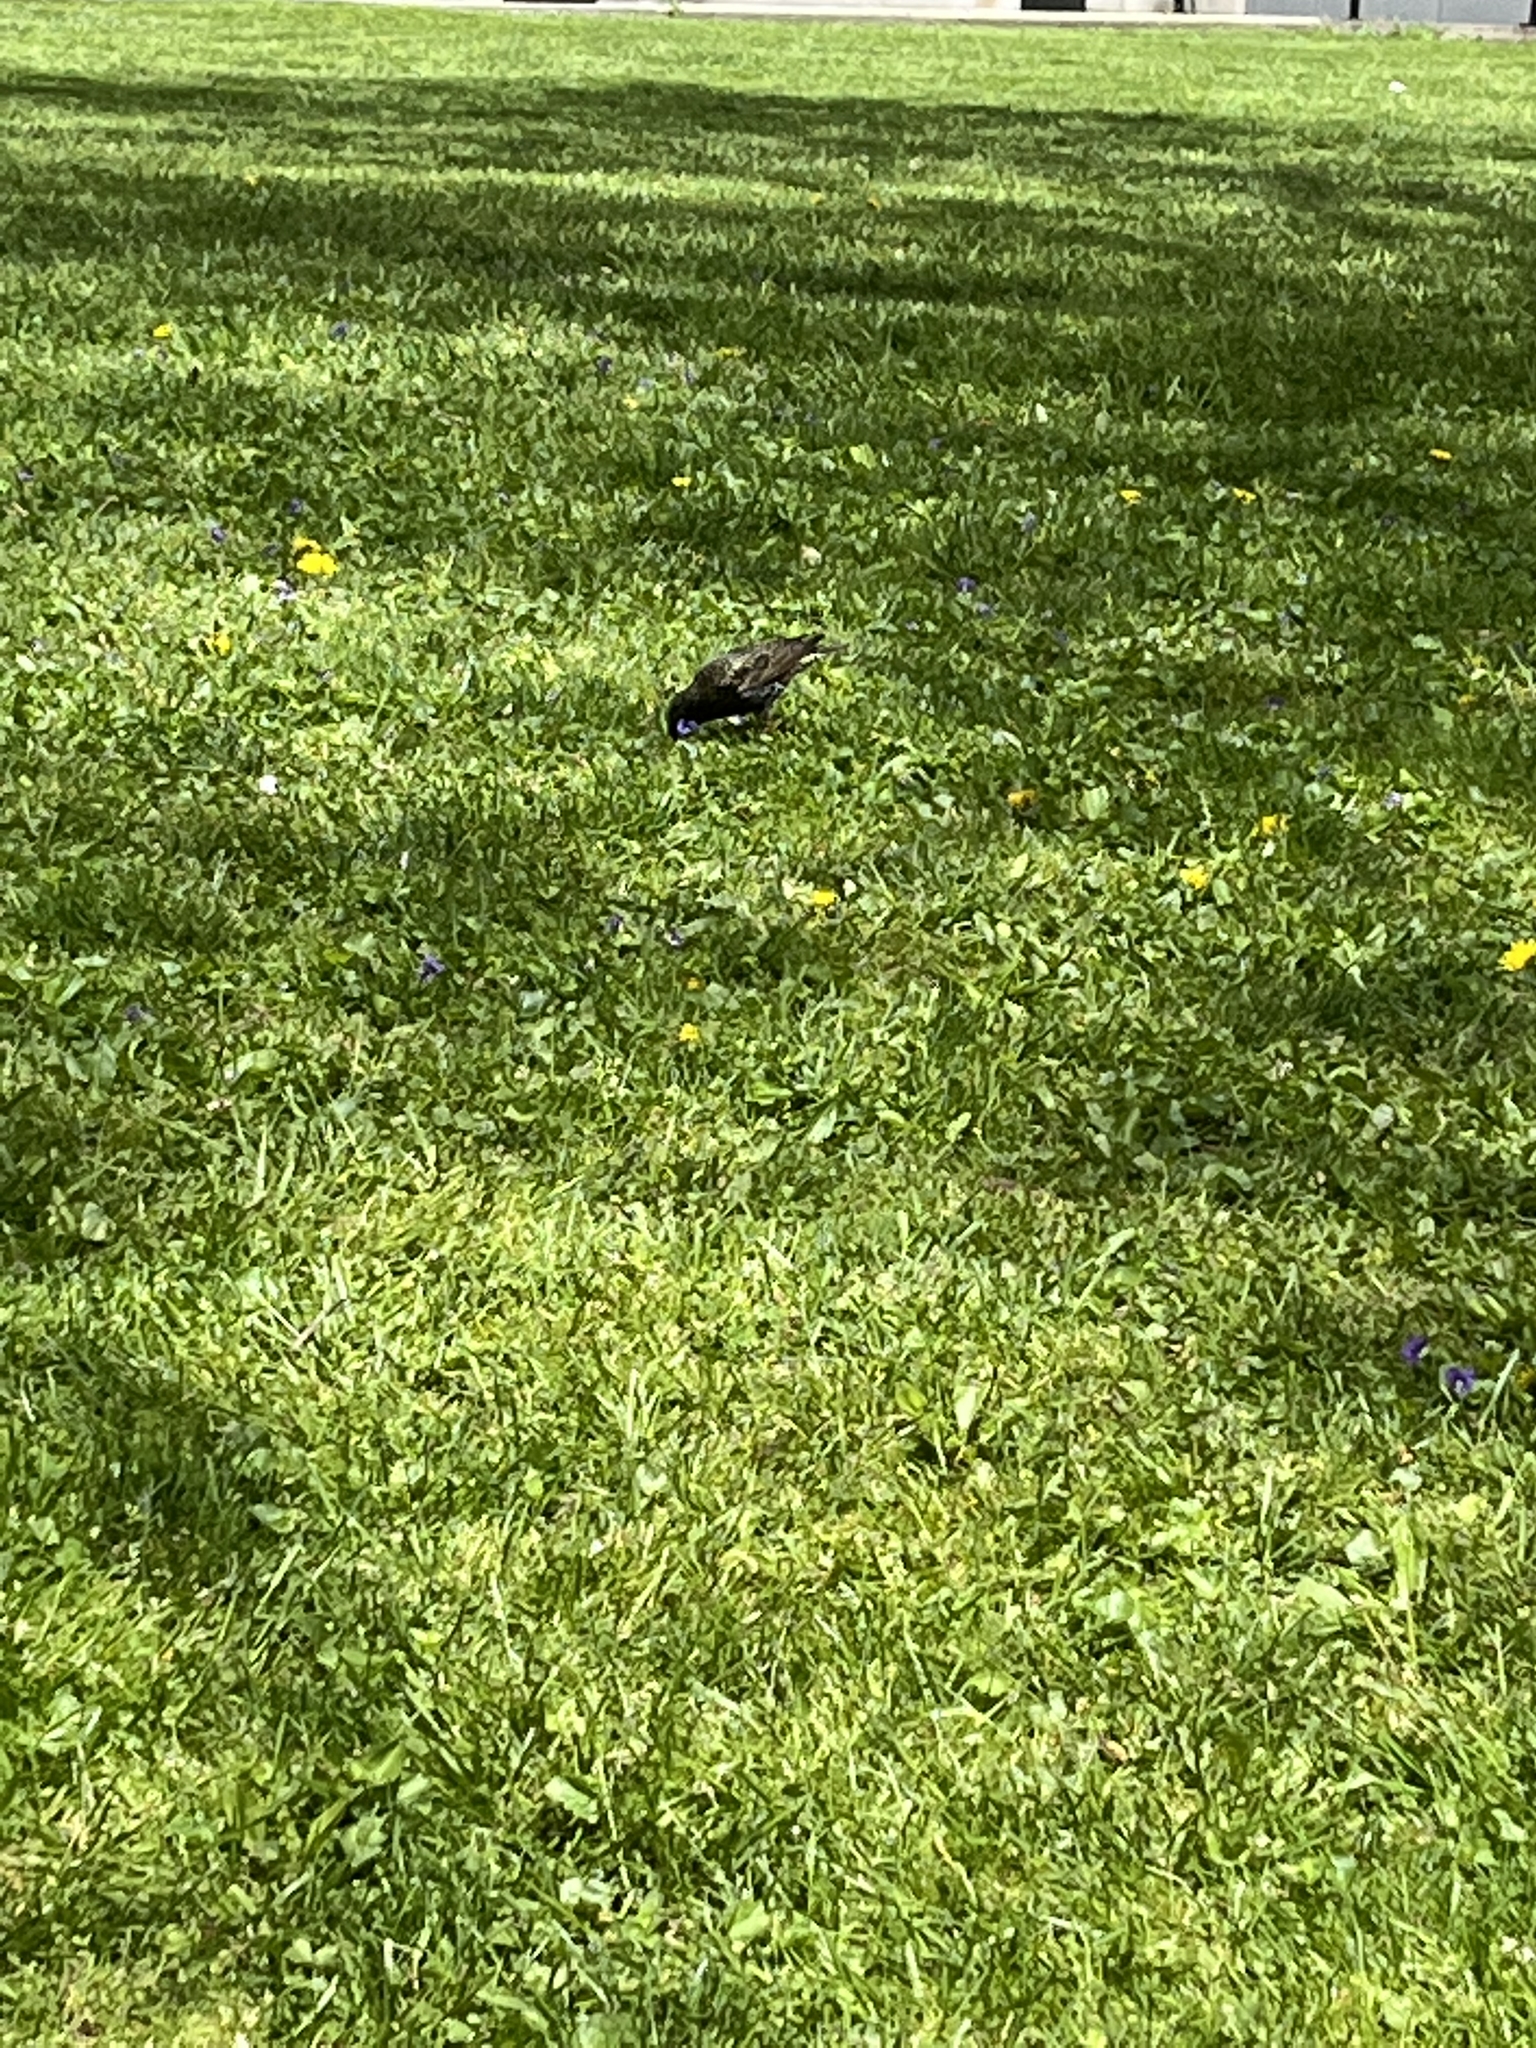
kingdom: Animalia
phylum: Chordata
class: Aves
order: Passeriformes
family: Sturnidae
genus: Sturnus
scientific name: Sturnus vulgaris
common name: Common starling
